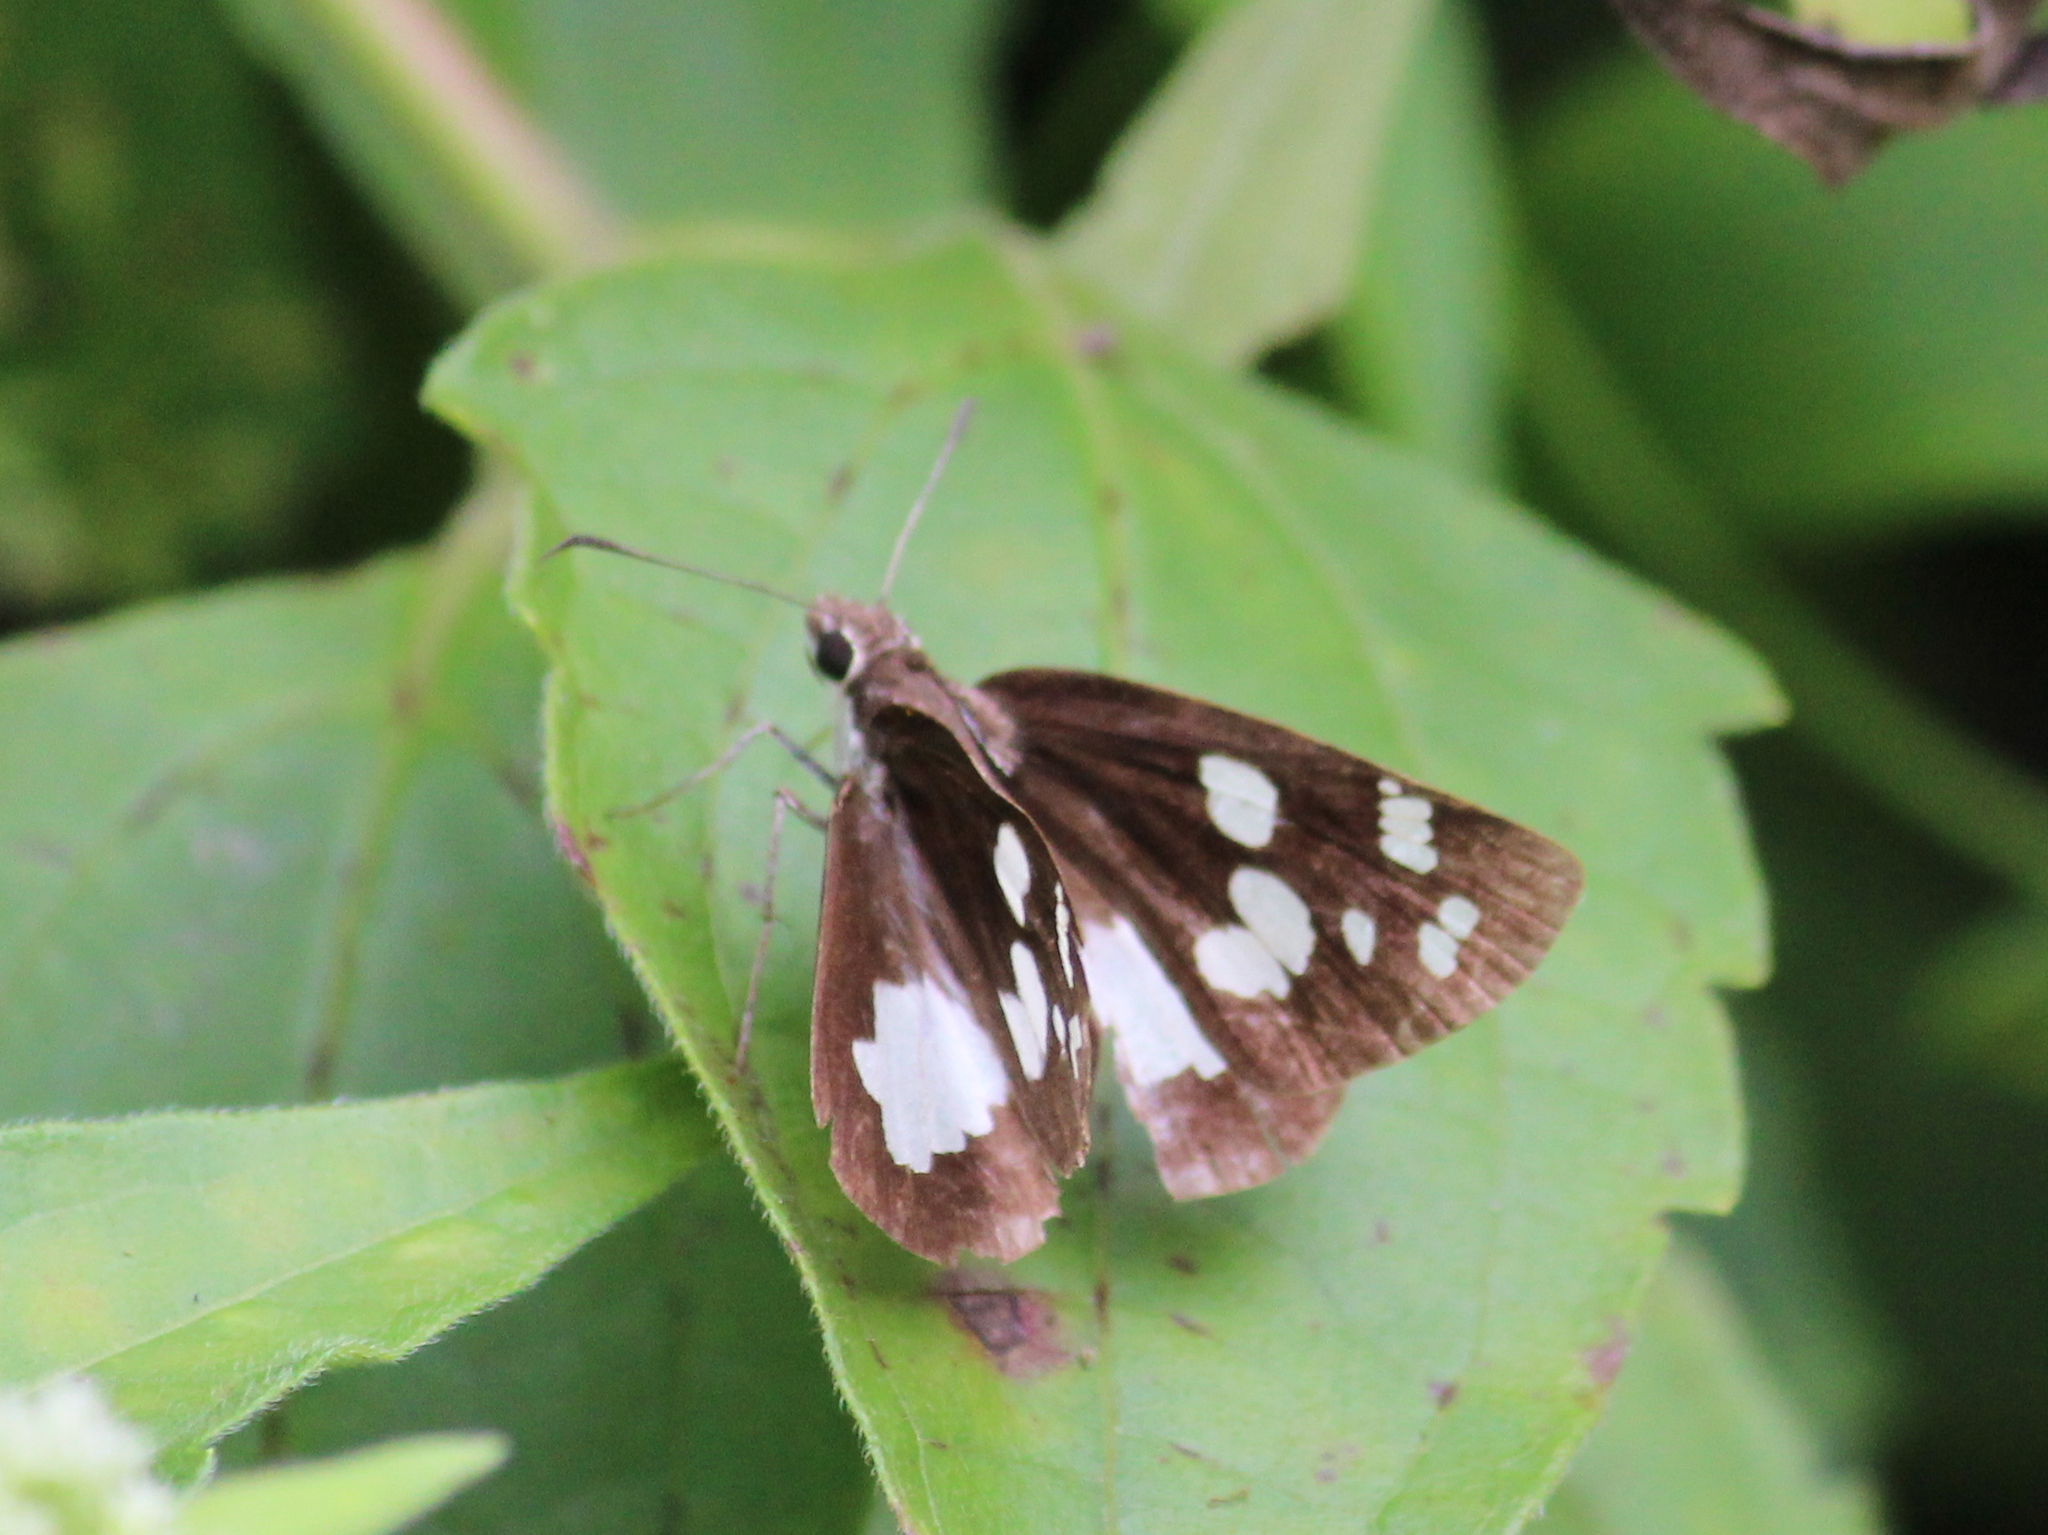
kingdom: Animalia
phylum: Arthropoda
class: Insecta
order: Lepidoptera
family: Hesperiidae
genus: Udaspes
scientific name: Udaspes folus
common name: Grass demon
